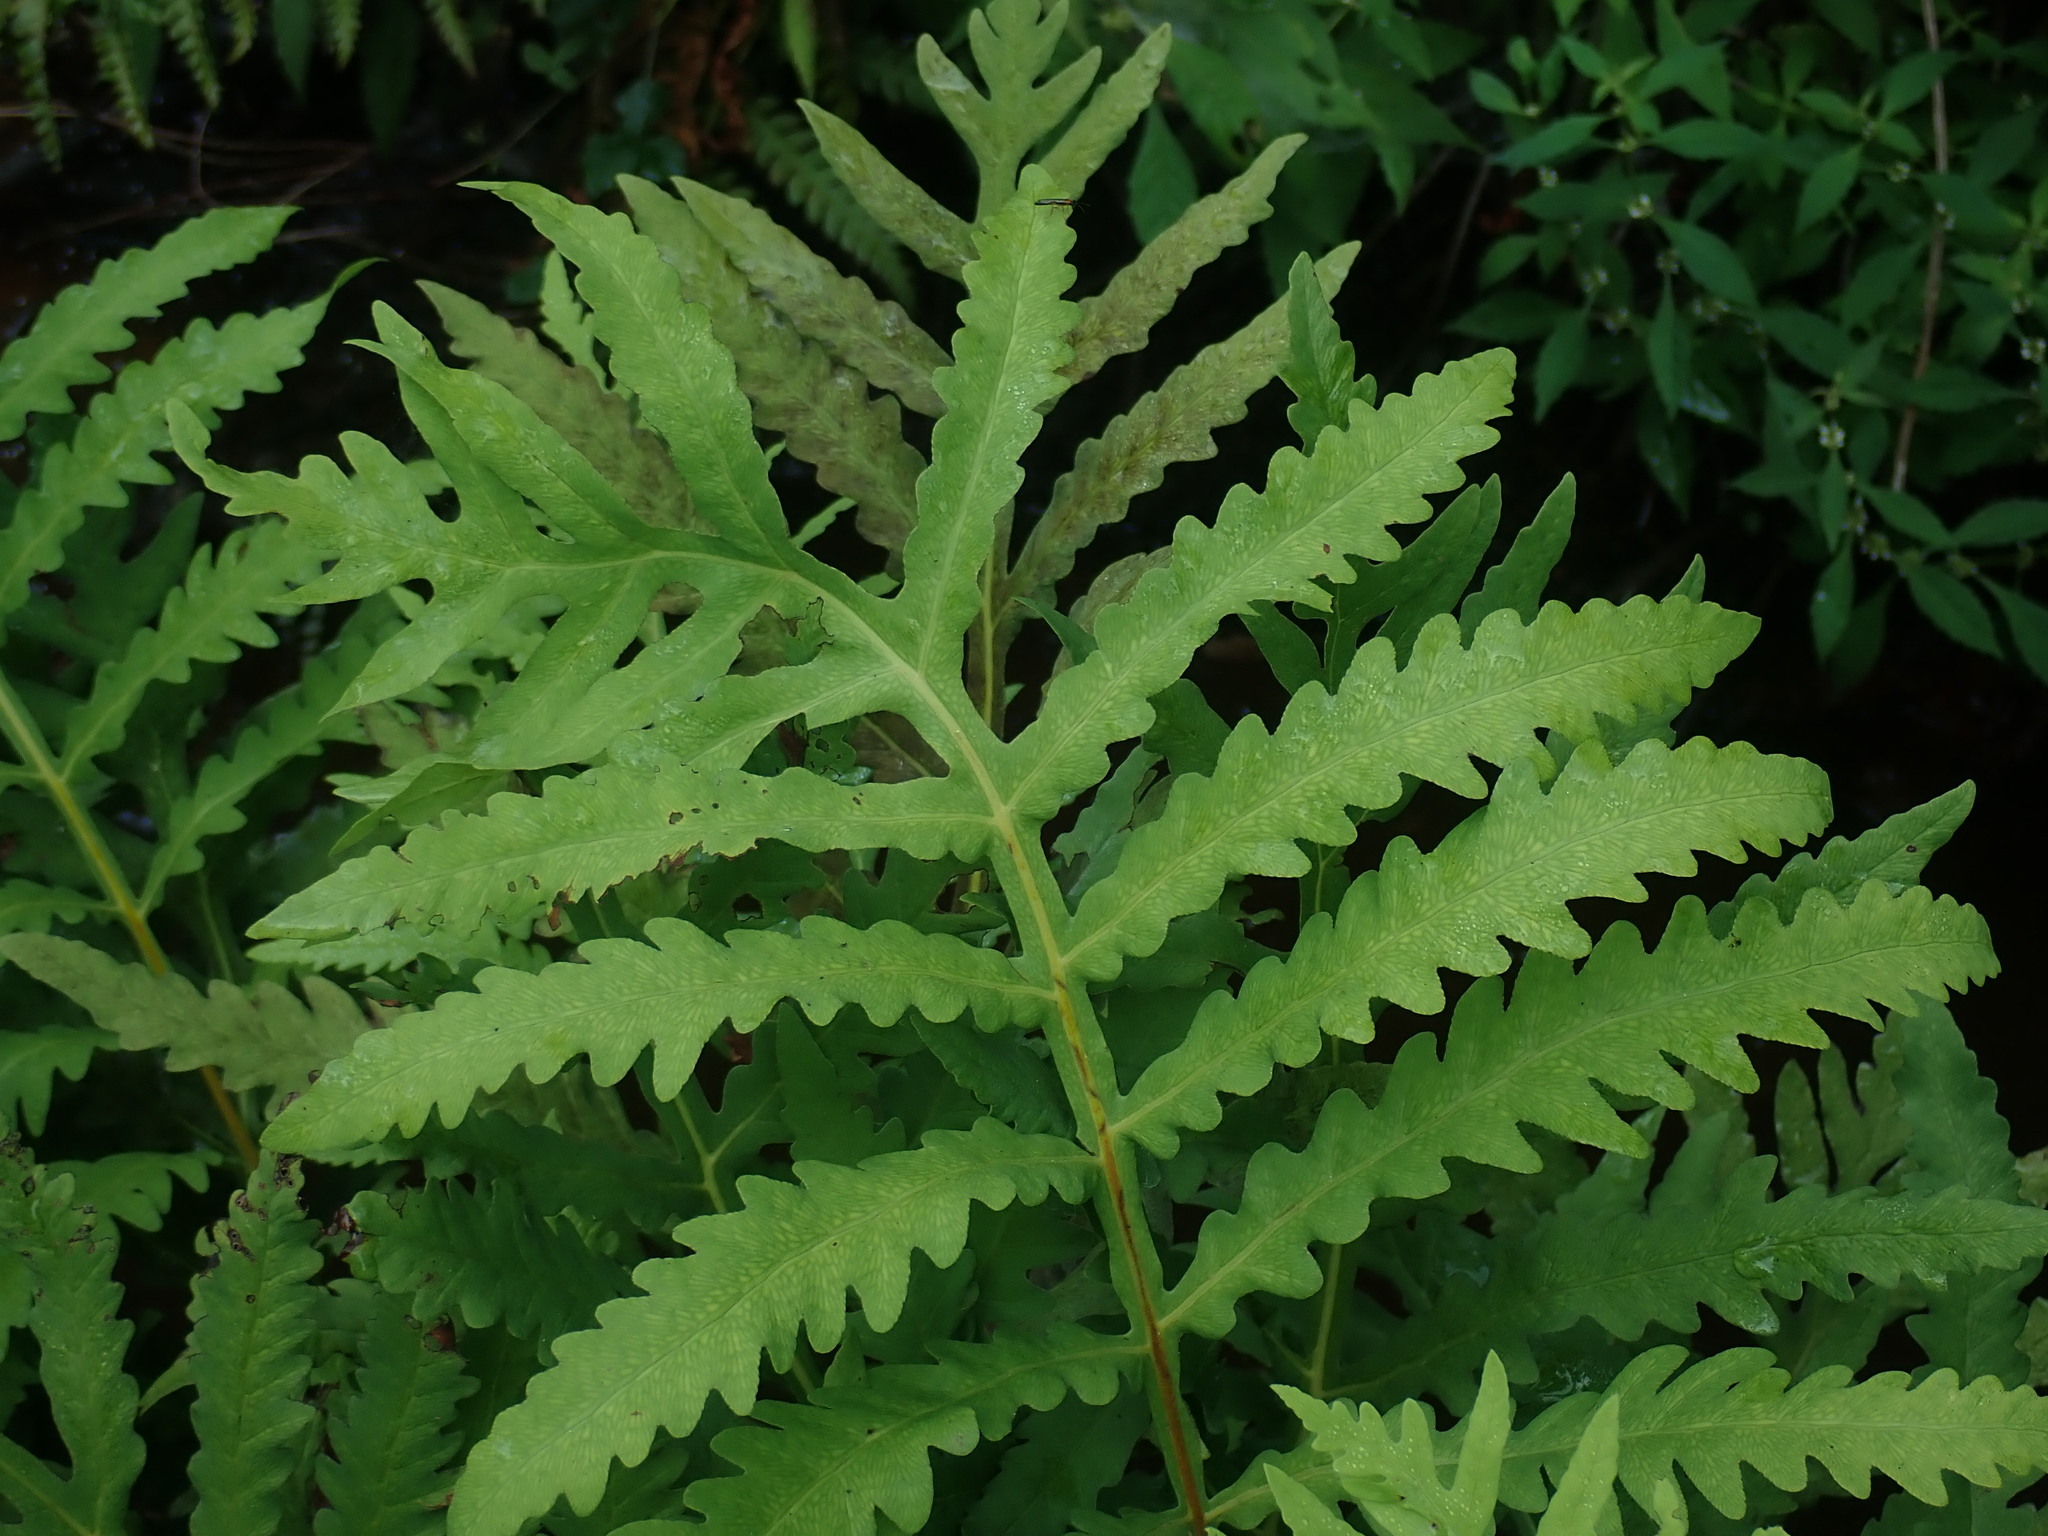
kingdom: Plantae
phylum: Tracheophyta
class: Polypodiopsida
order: Polypodiales
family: Onocleaceae
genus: Onoclea
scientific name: Onoclea sensibilis
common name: Sensitive fern
